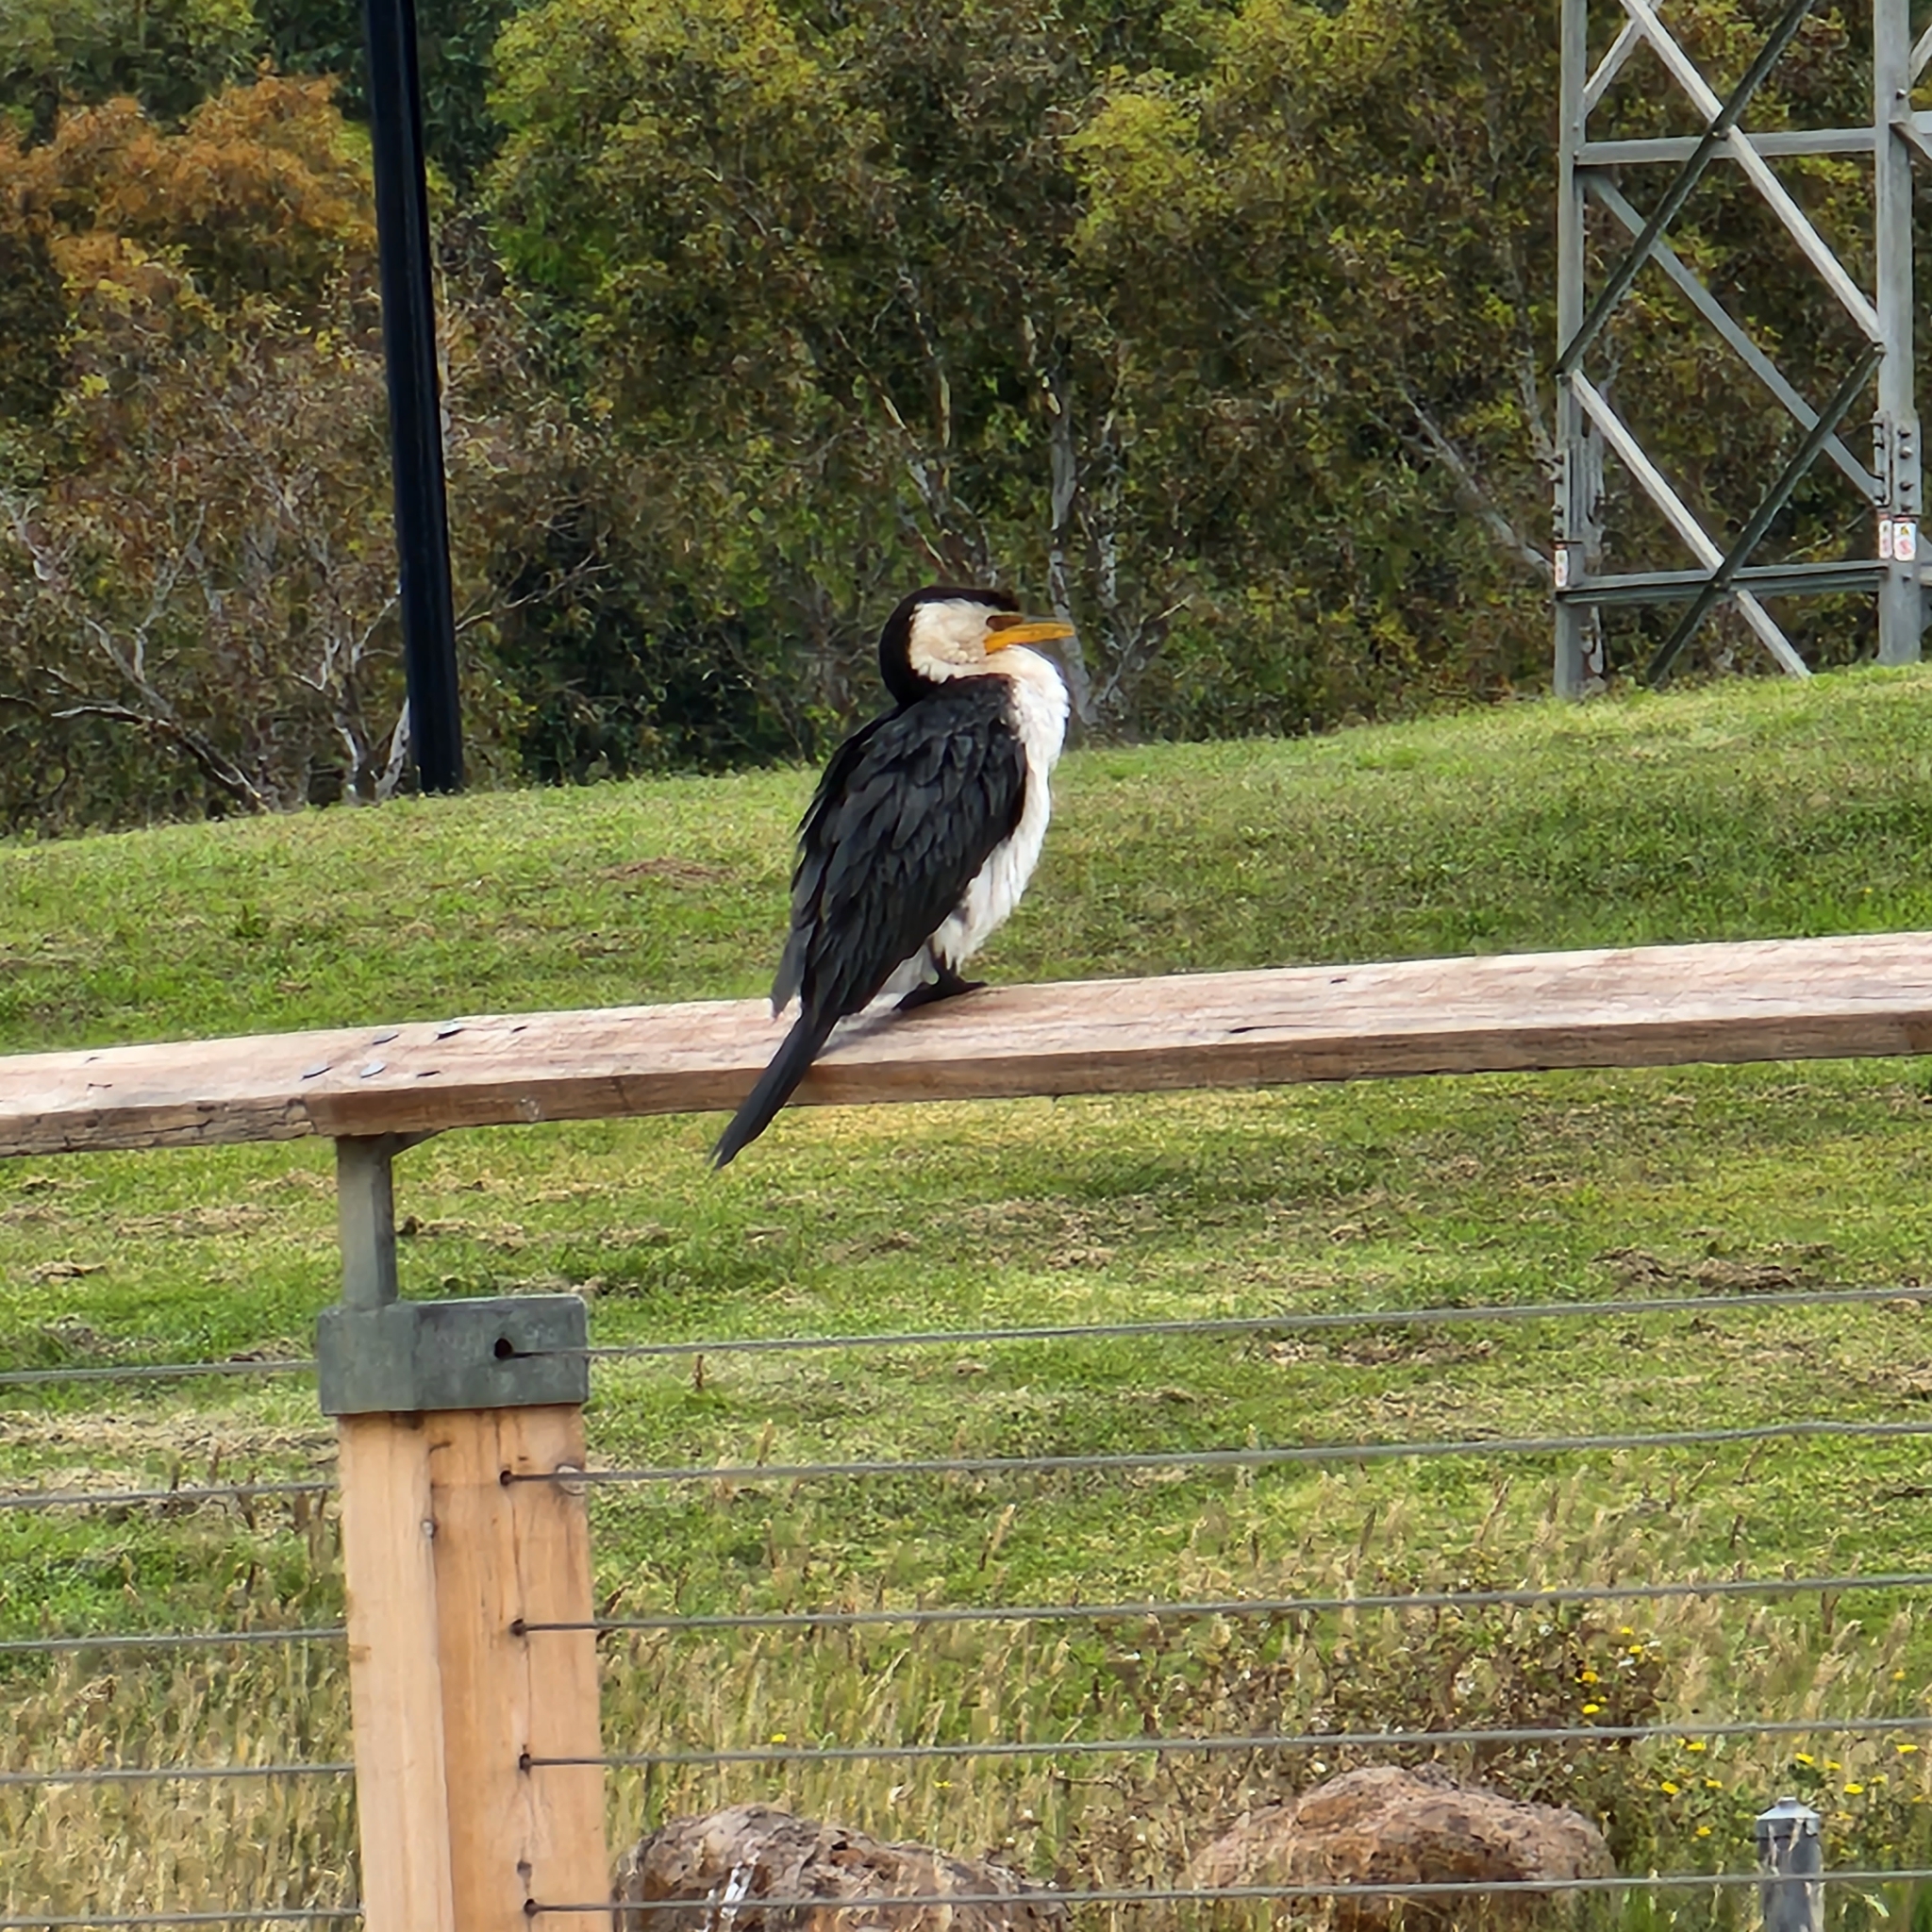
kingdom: Animalia
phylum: Chordata
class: Aves
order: Suliformes
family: Phalacrocoracidae
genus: Microcarbo
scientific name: Microcarbo melanoleucos
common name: Little pied cormorant
